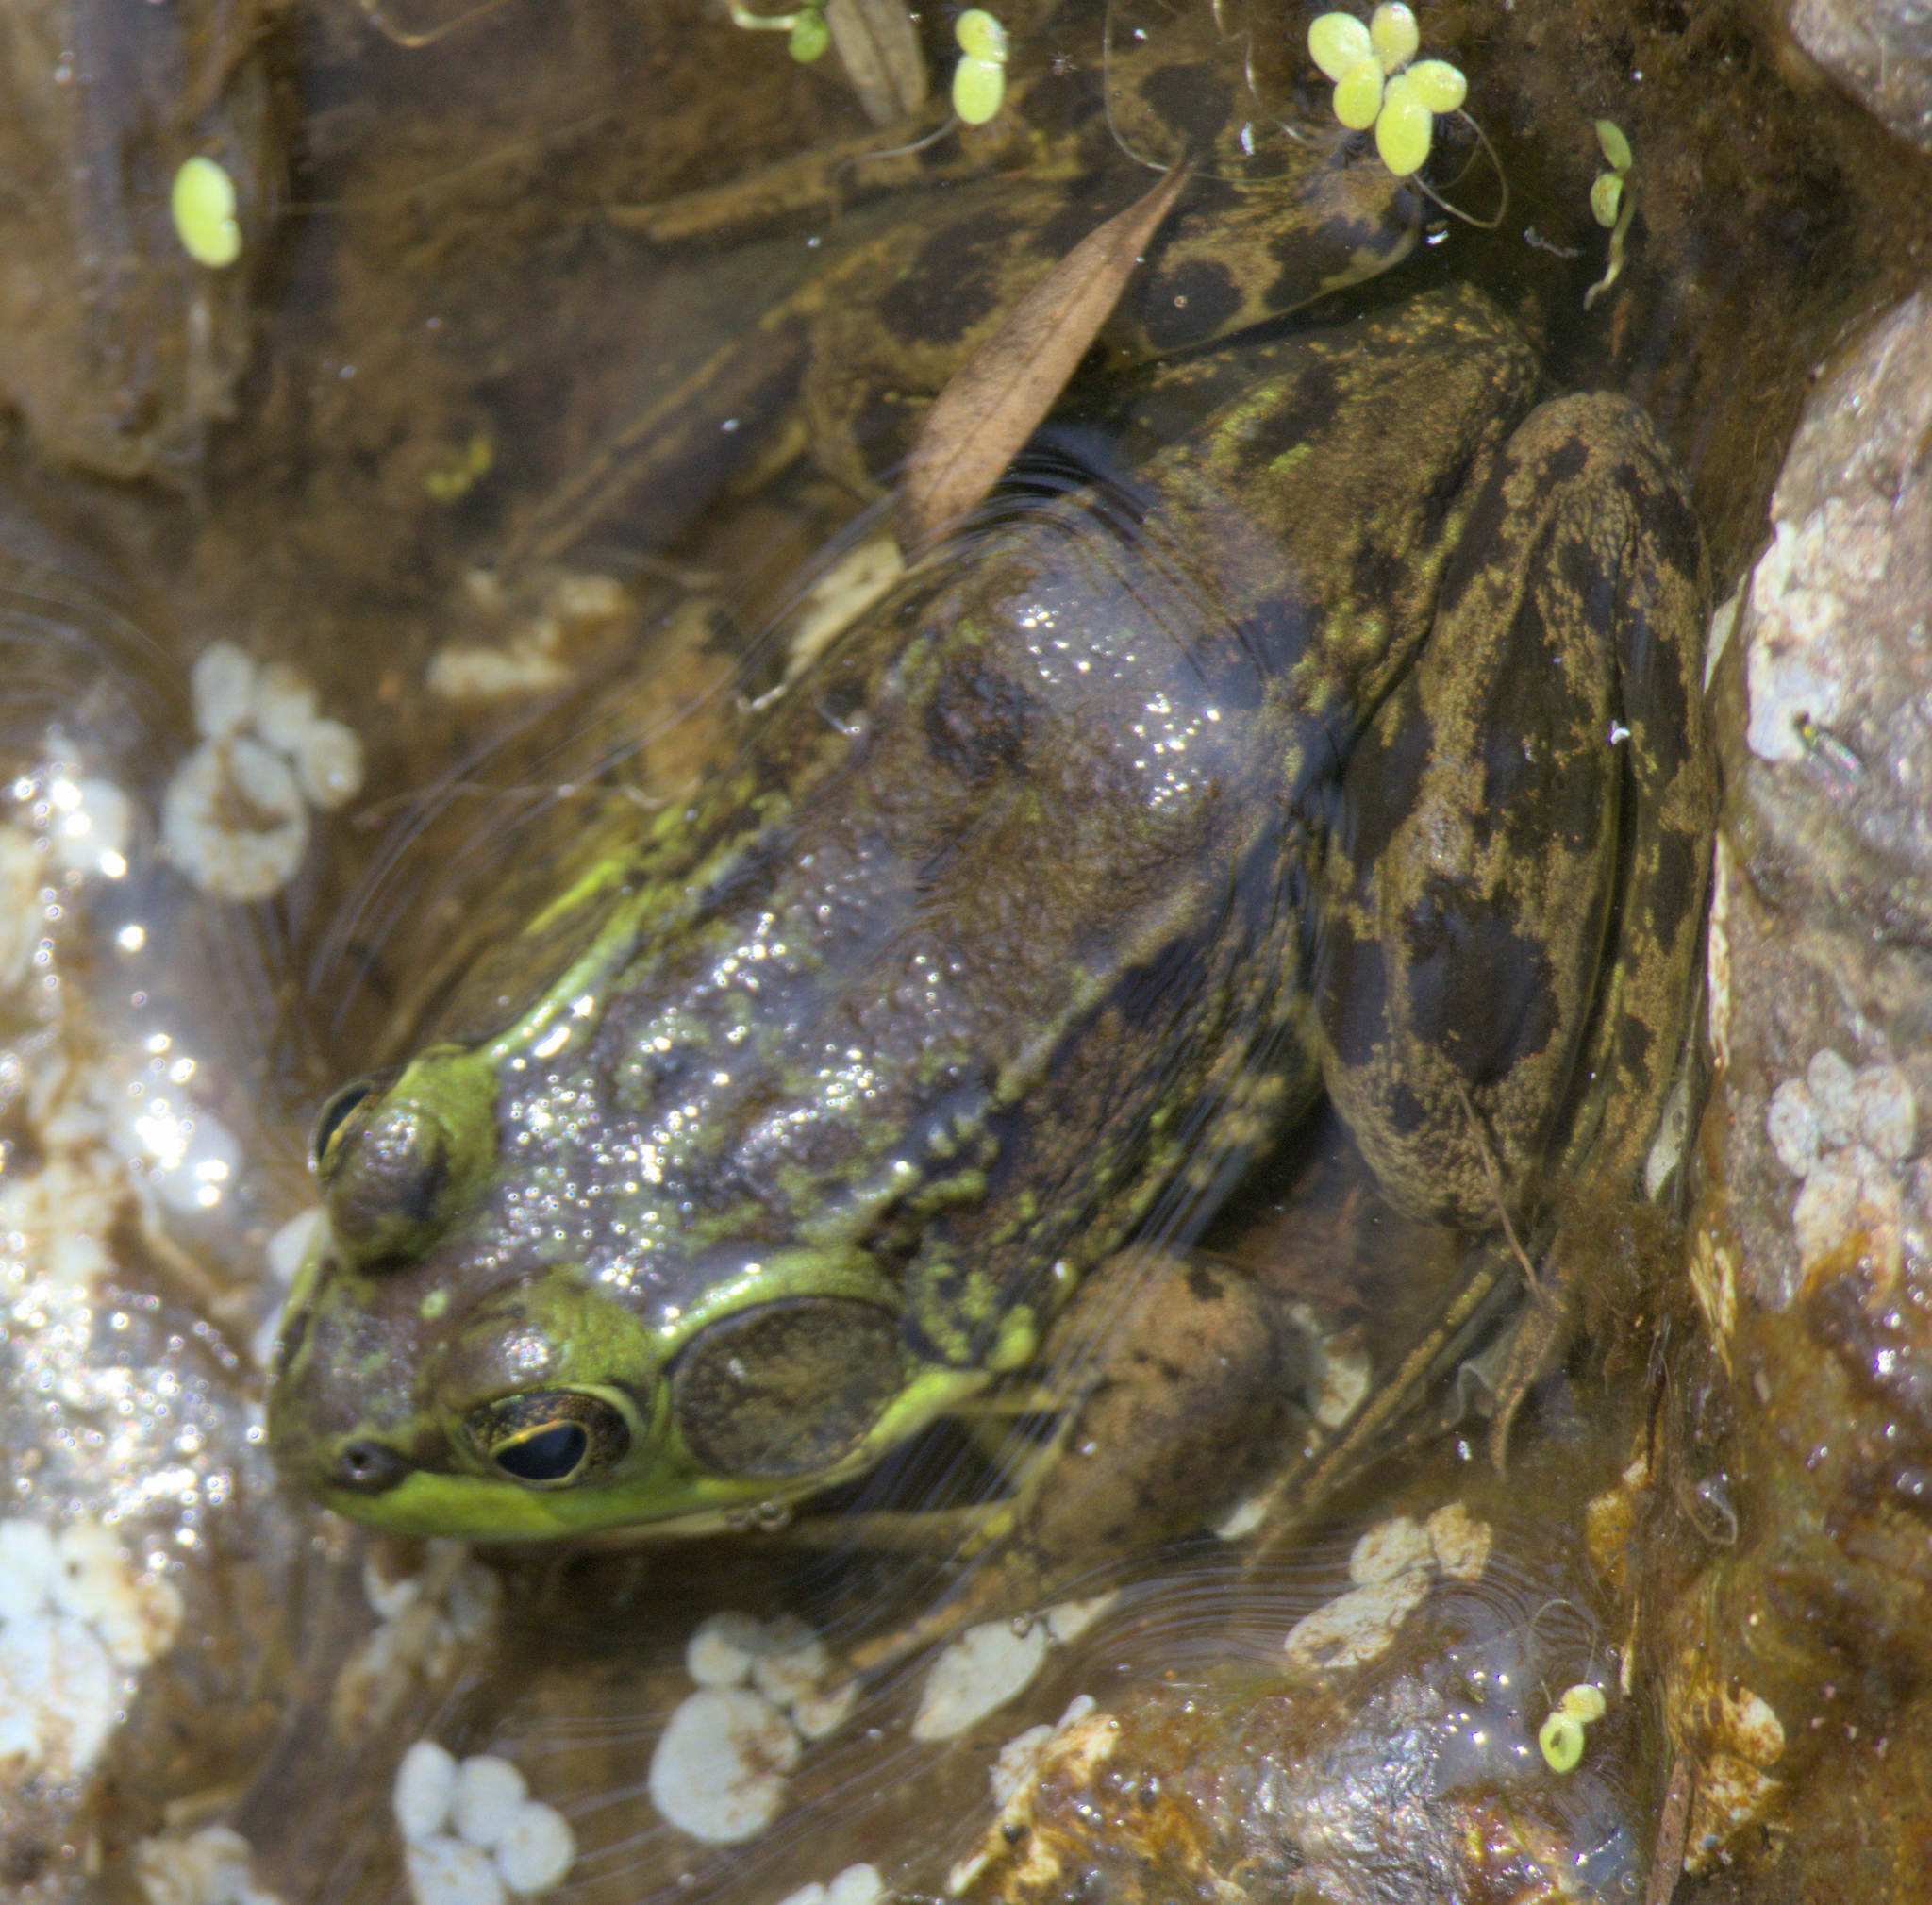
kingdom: Animalia
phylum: Chordata
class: Amphibia
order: Anura
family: Ranidae
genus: Lithobates
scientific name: Lithobates septentrionalis
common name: Mink frog
